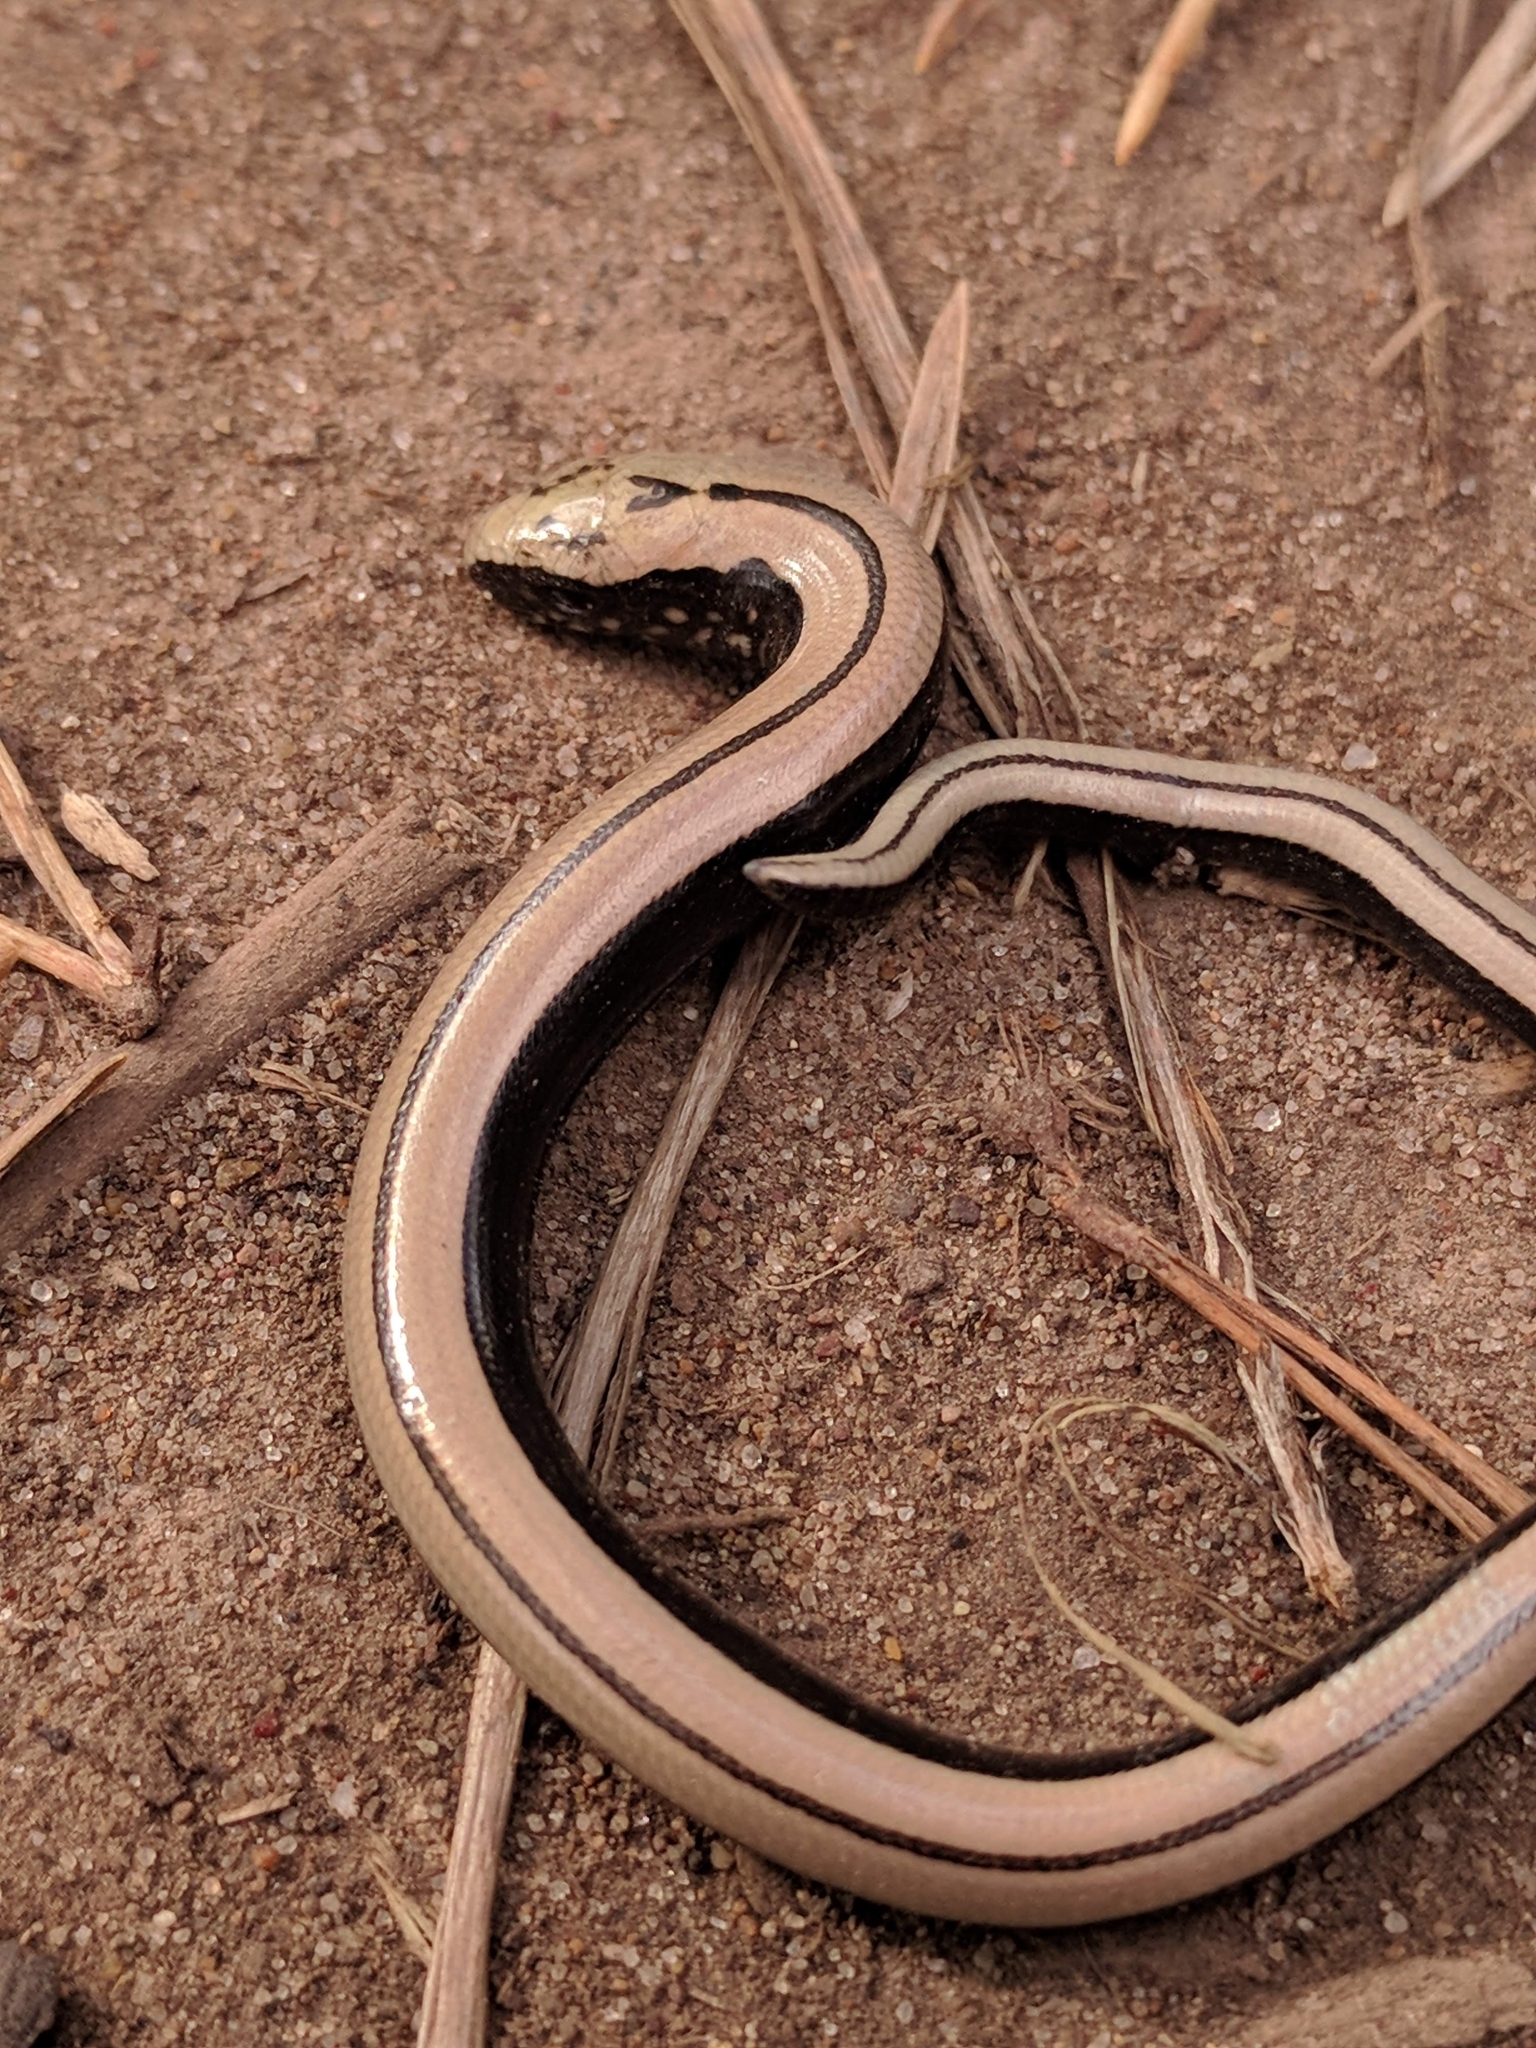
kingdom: Animalia
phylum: Chordata
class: Squamata
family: Anguidae
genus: Anguis
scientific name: Anguis colchica
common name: Slow worm
